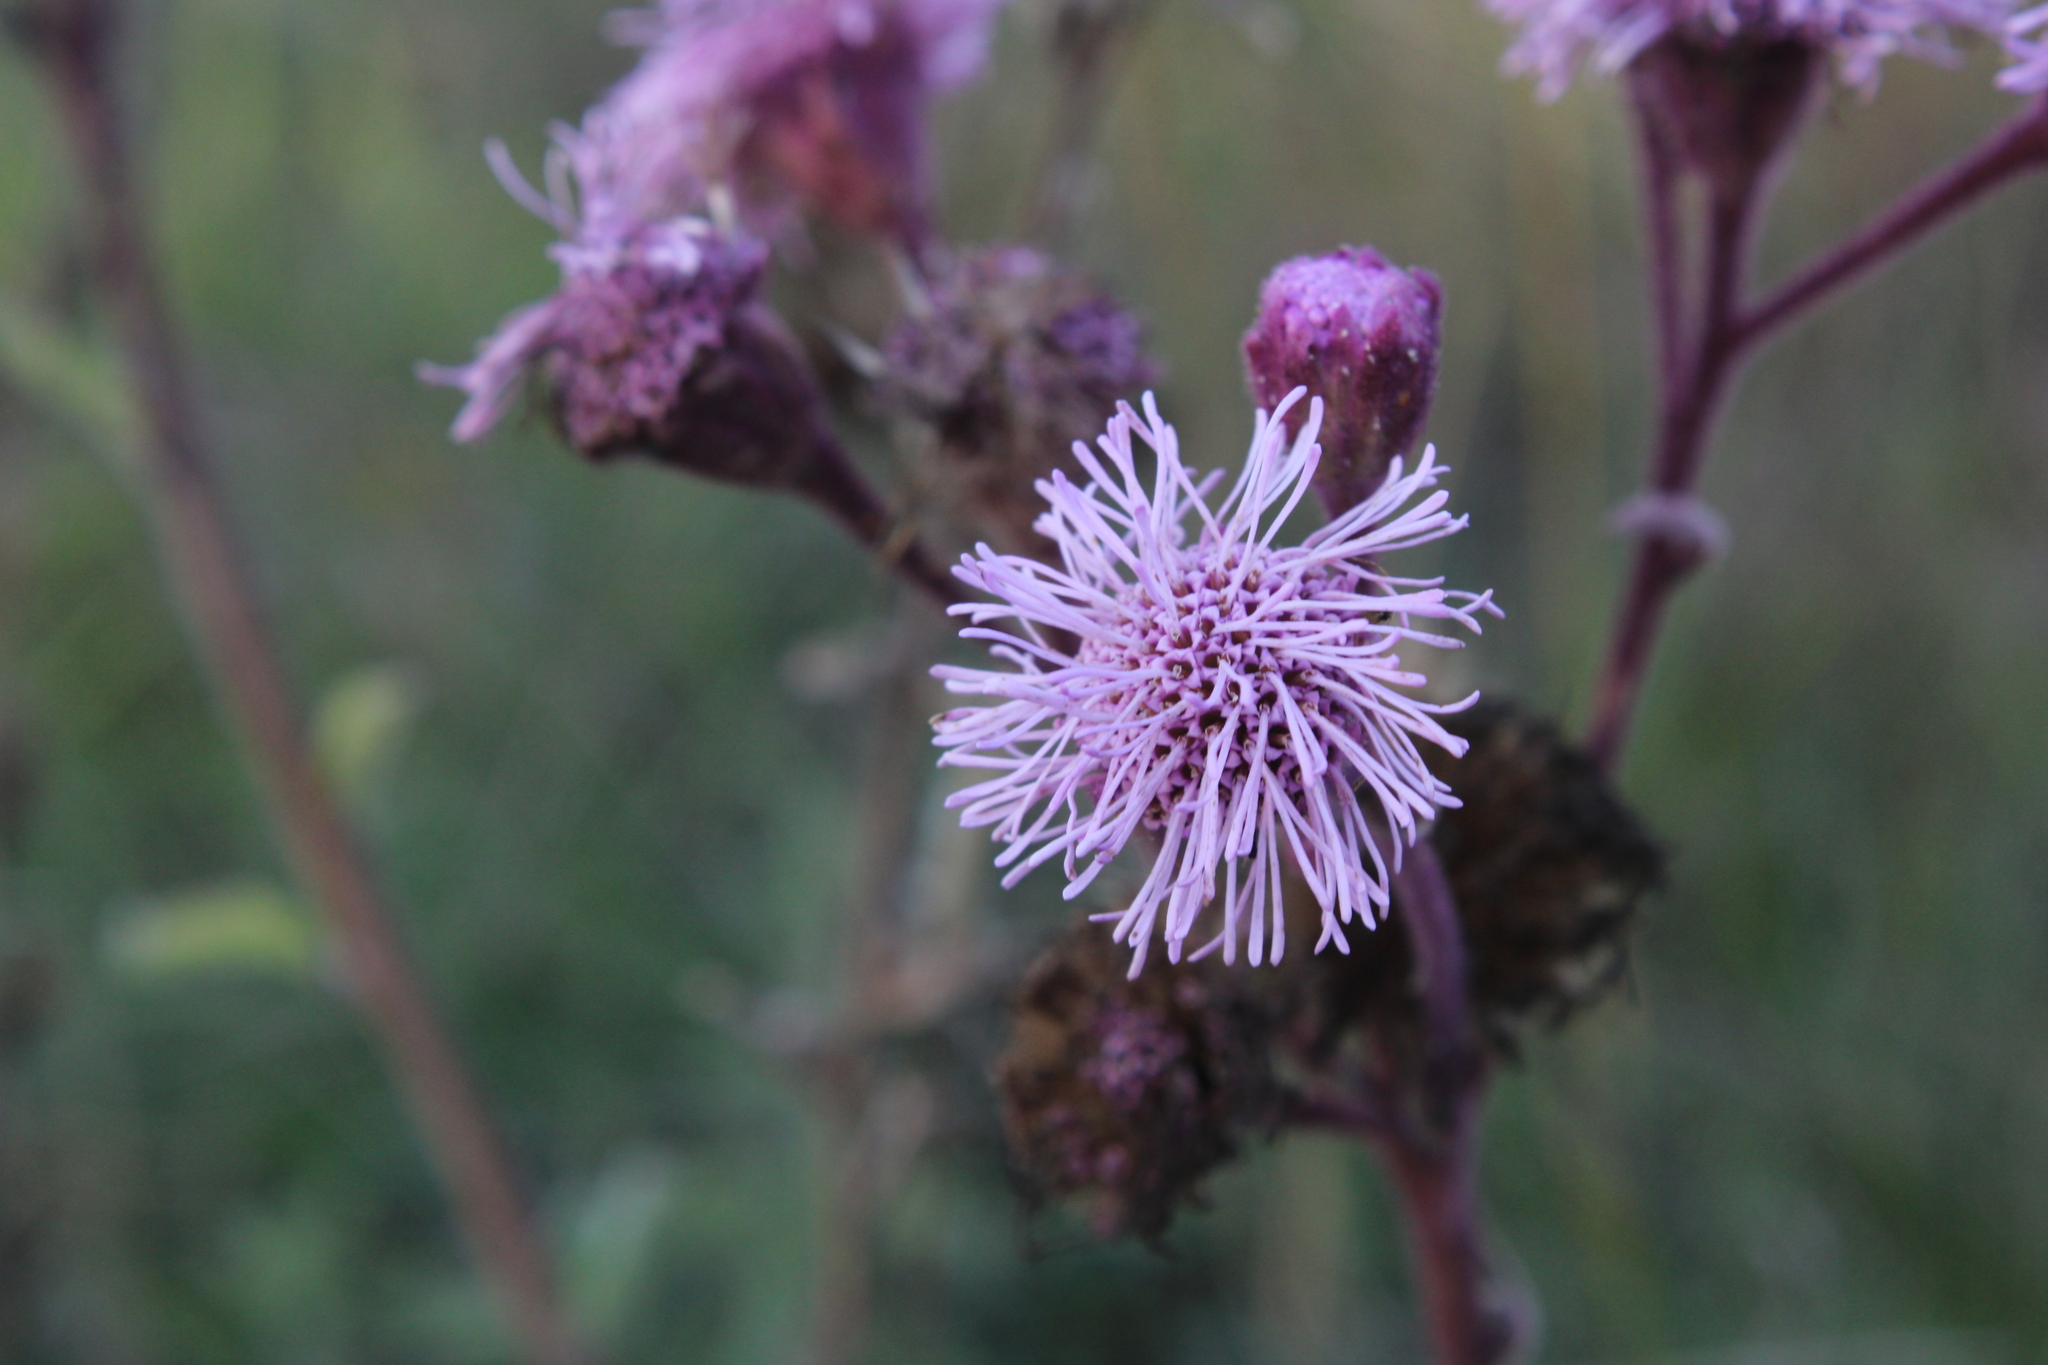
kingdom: Plantae
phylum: Tracheophyta
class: Magnoliopsida
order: Asterales
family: Asteraceae
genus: Campuloclinium
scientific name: Campuloclinium macrocephalum
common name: Pompomweed
